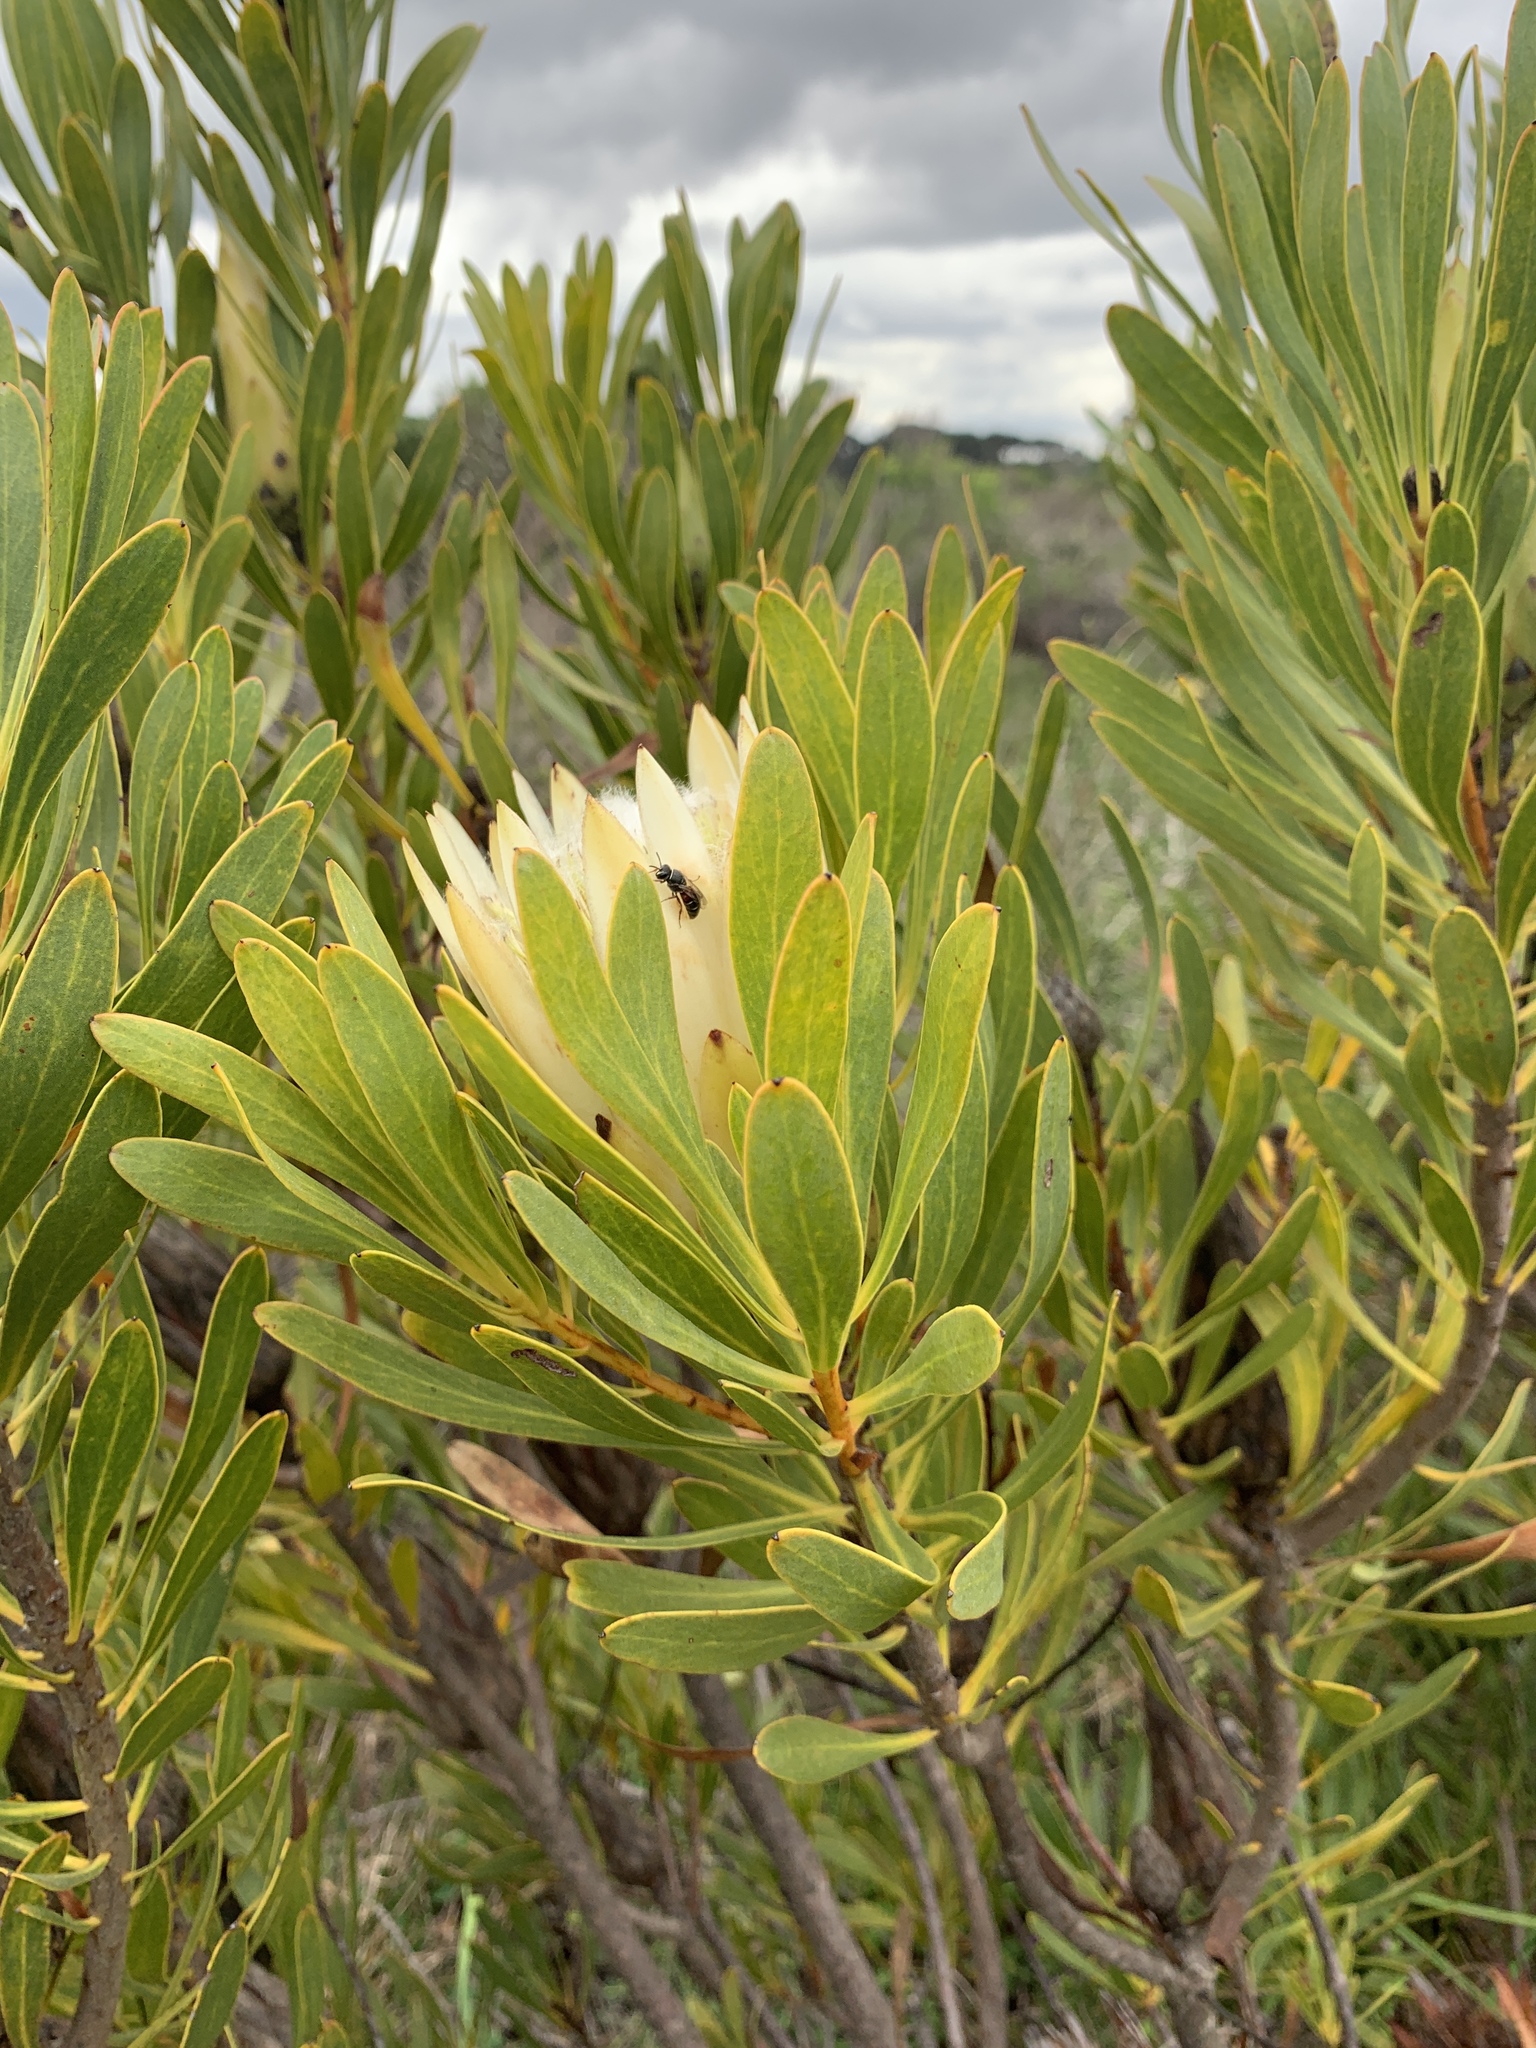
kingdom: Plantae
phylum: Tracheophyta
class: Magnoliopsida
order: Proteales
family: Proteaceae
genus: Protea
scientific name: Protea repens
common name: Sugarbush
